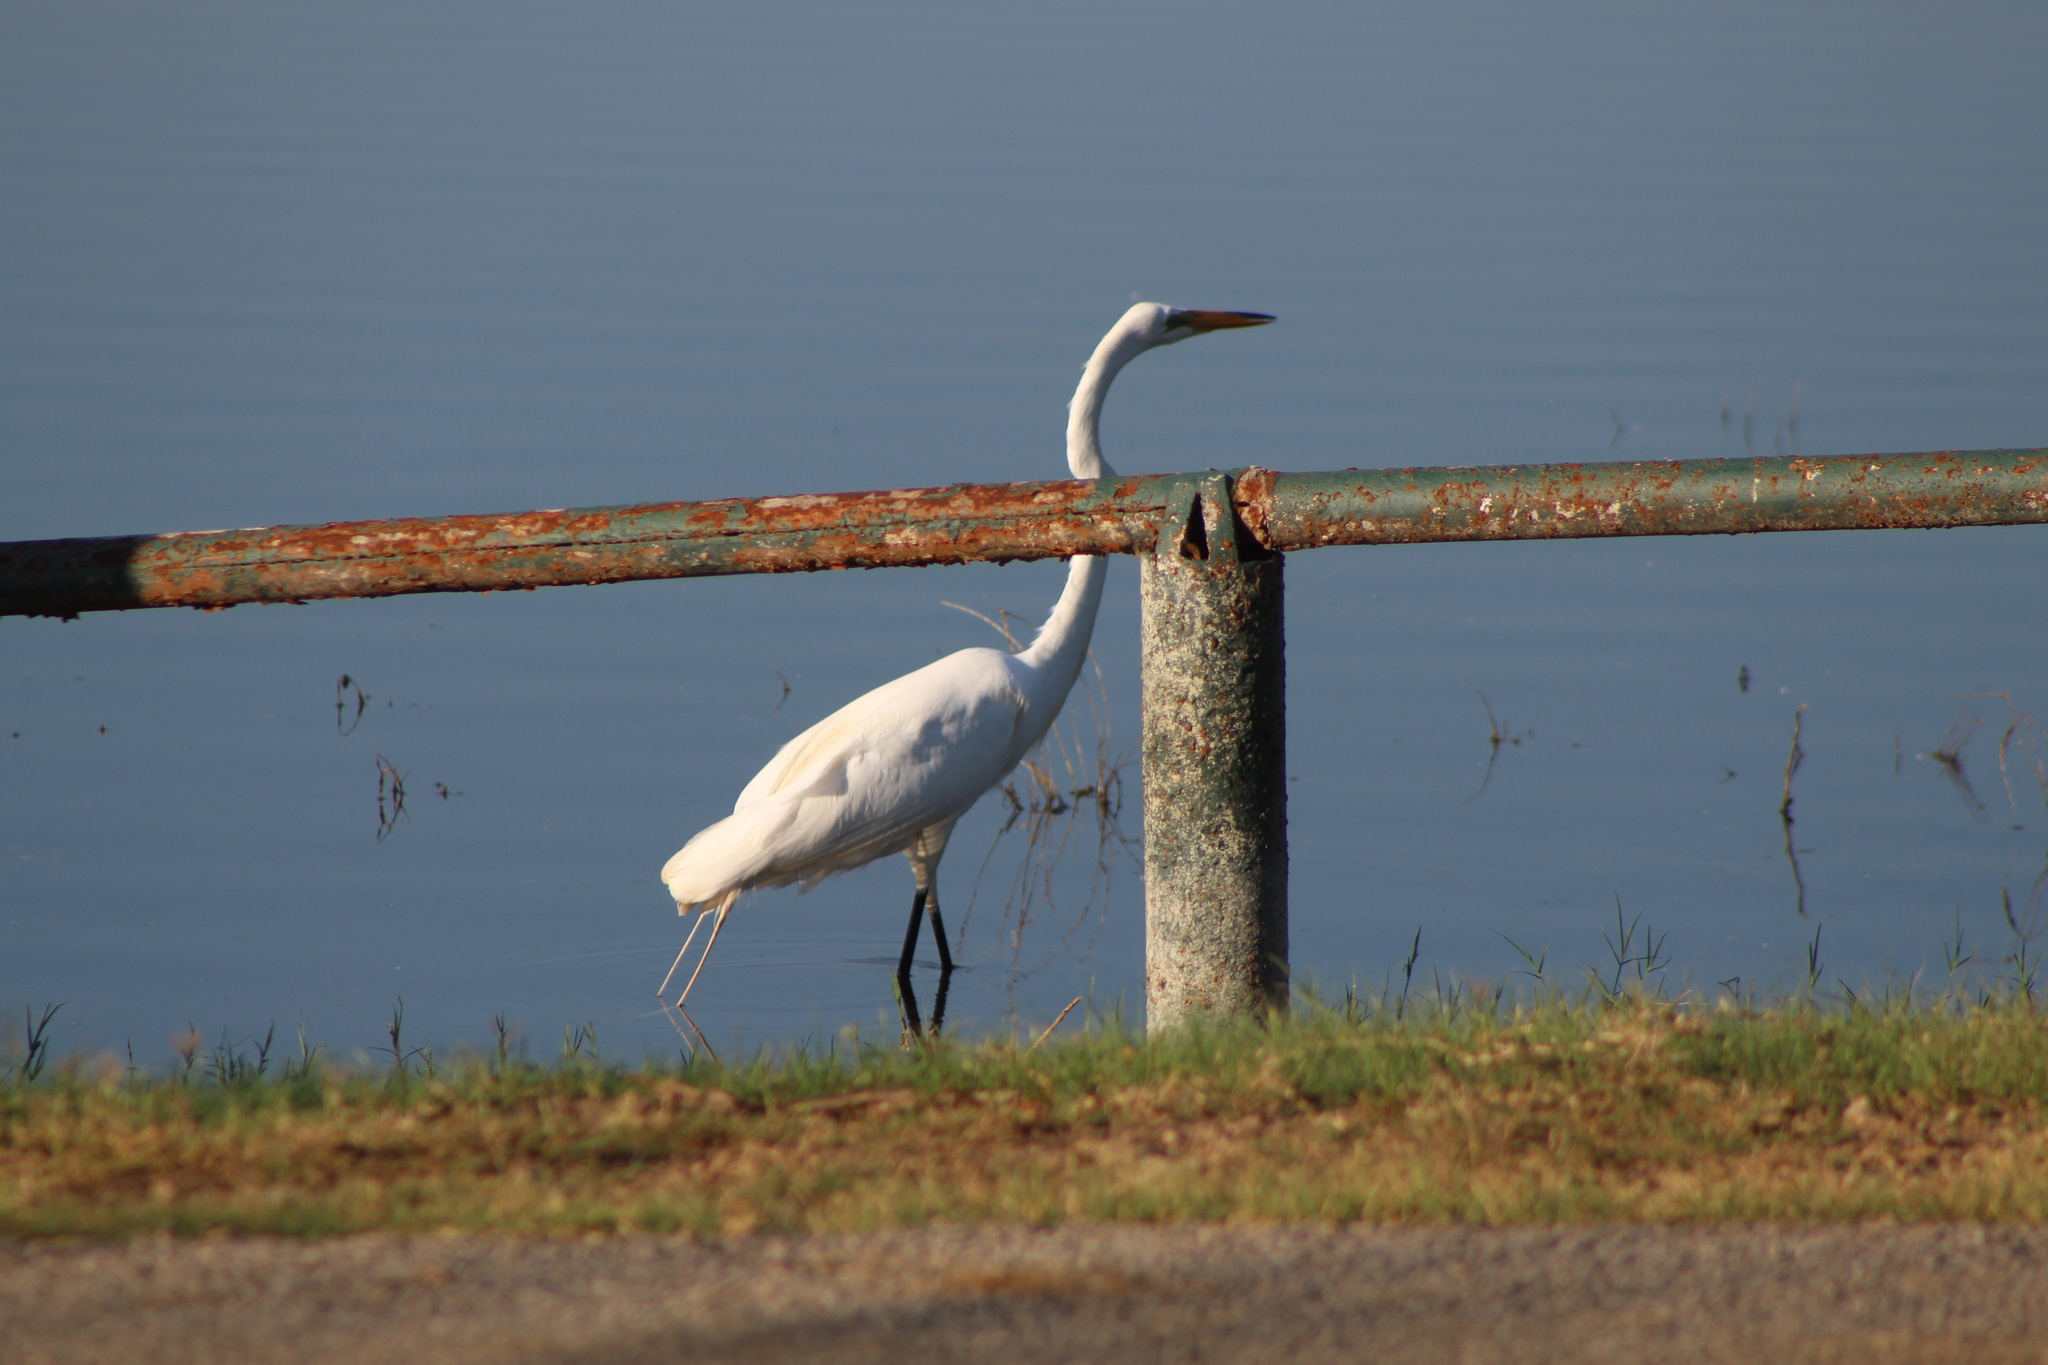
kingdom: Animalia
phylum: Chordata
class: Aves
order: Pelecaniformes
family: Ardeidae
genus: Ardea
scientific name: Ardea alba
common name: Great egret
